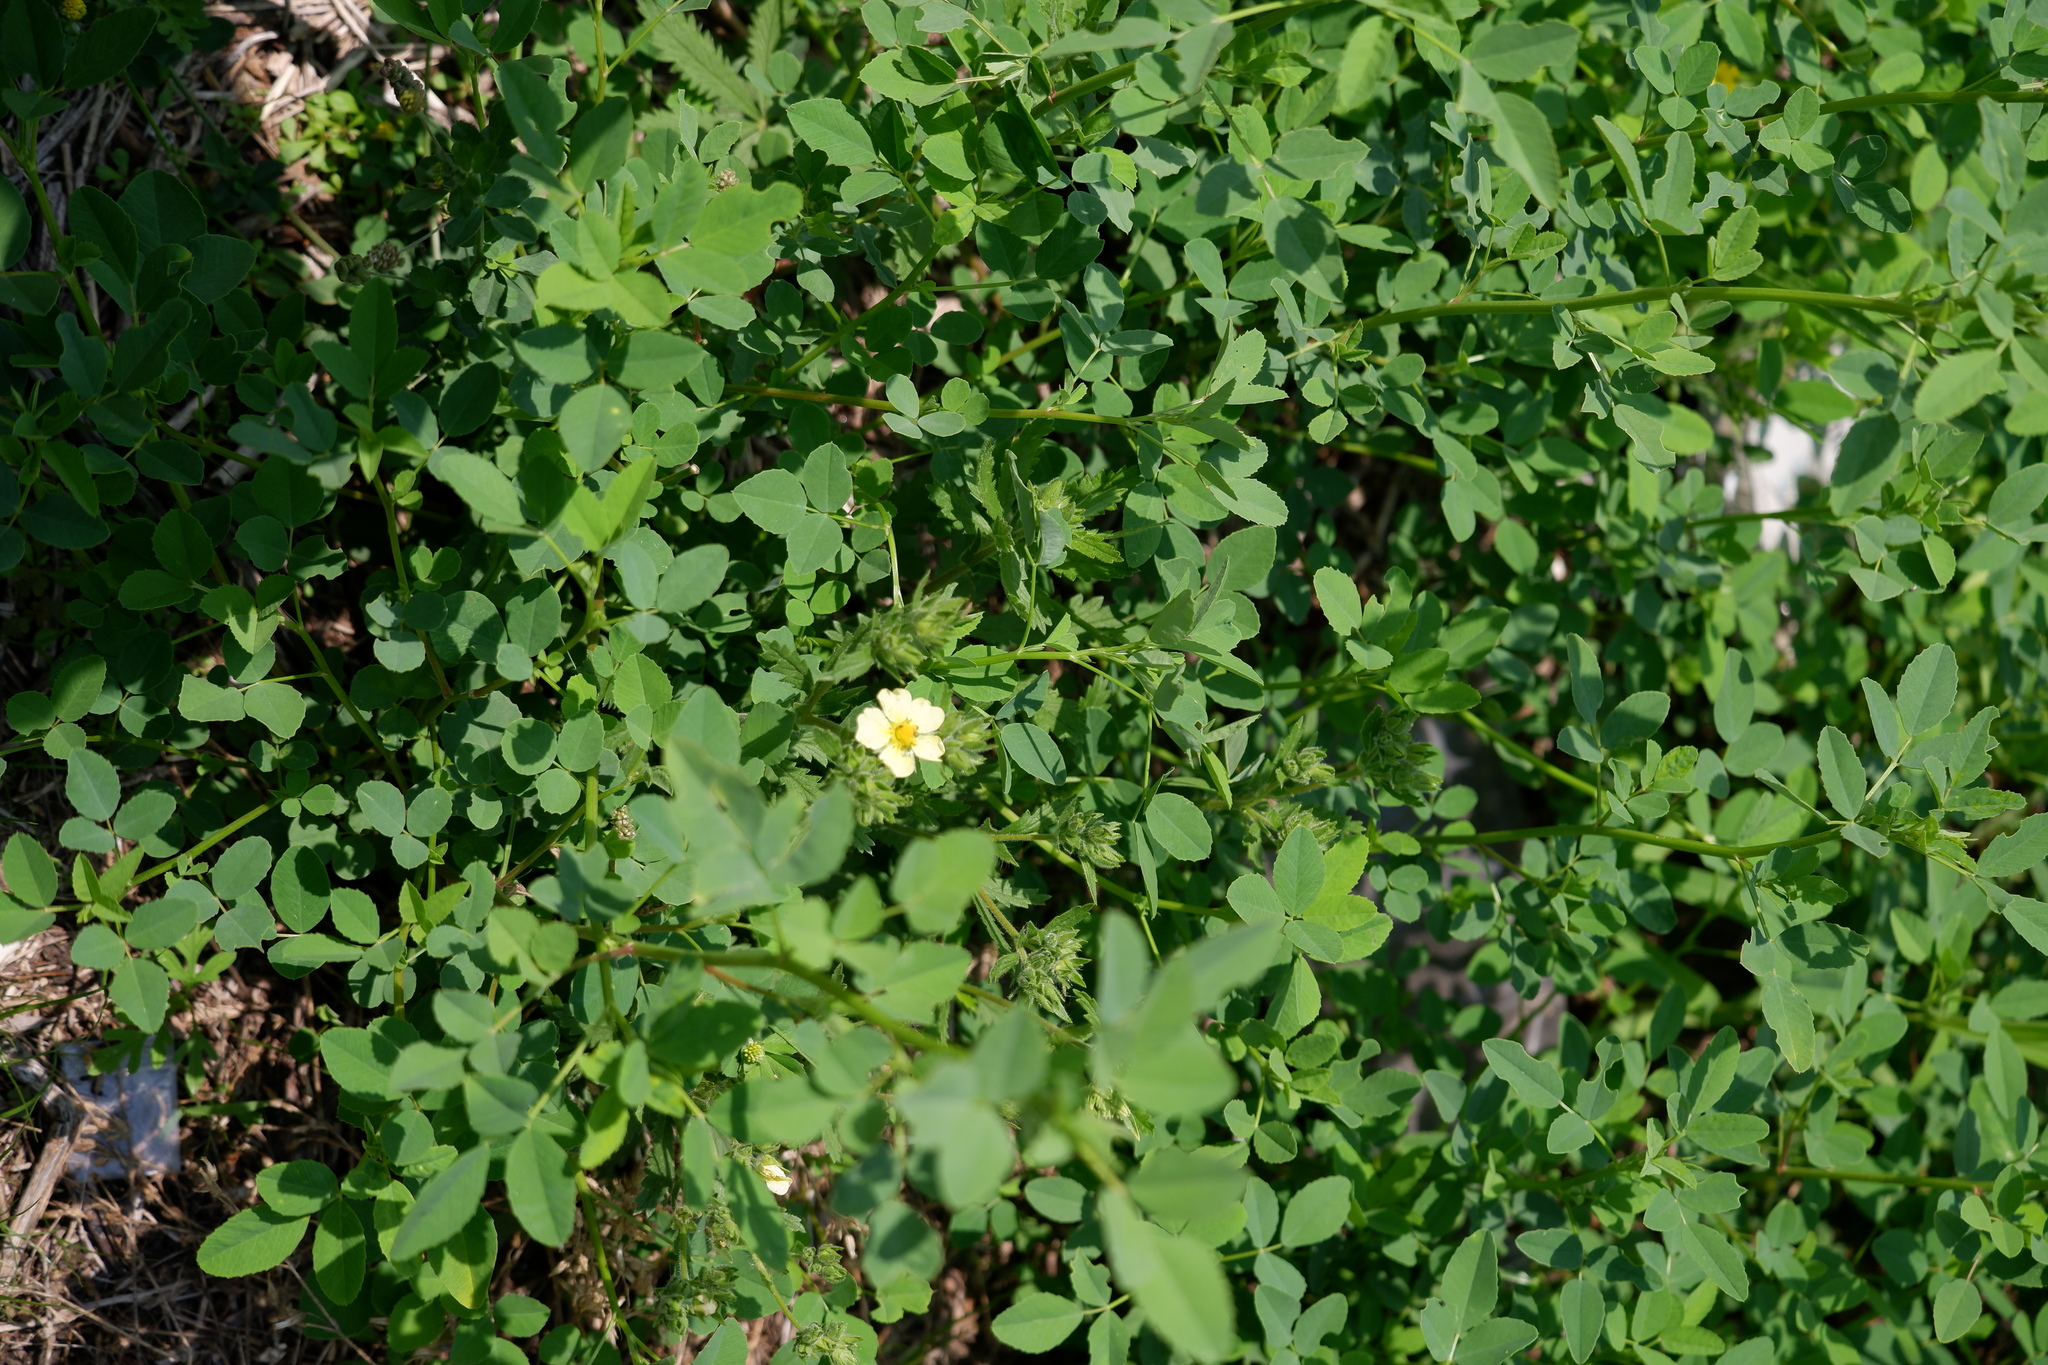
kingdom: Plantae
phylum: Tracheophyta
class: Magnoliopsida
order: Rosales
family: Rosaceae
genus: Potentilla
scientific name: Potentilla recta
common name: Sulphur cinquefoil
